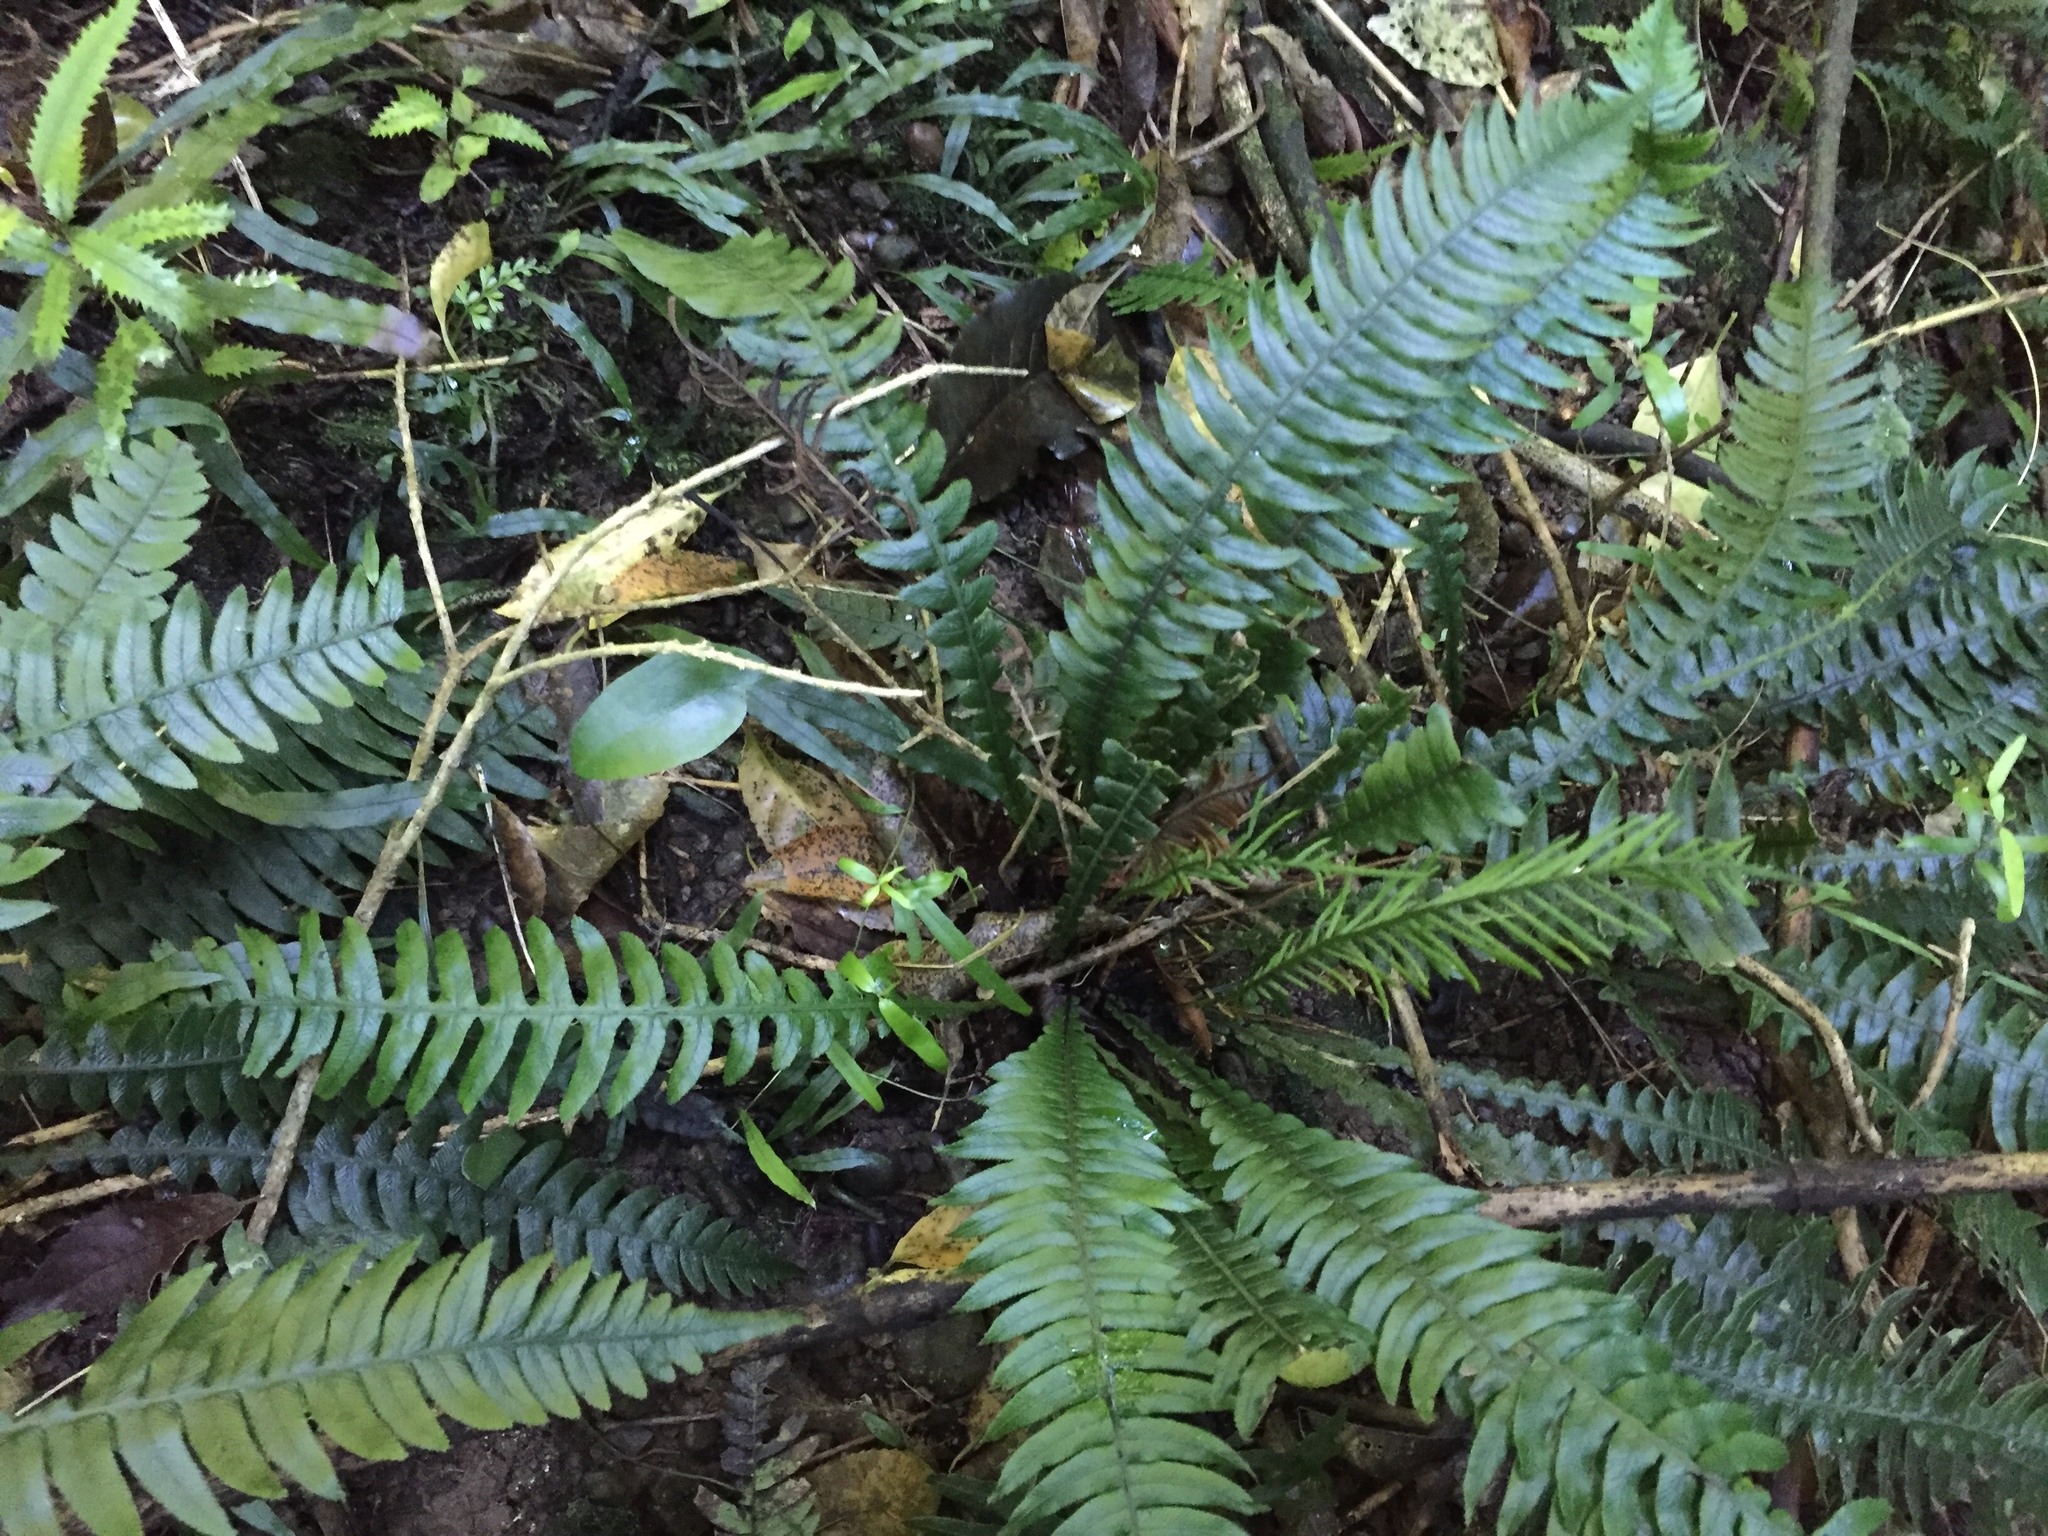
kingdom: Plantae
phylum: Tracheophyta
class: Polypodiopsida
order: Polypodiales
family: Blechnaceae
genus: Austroblechnum
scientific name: Austroblechnum lanceolatum
